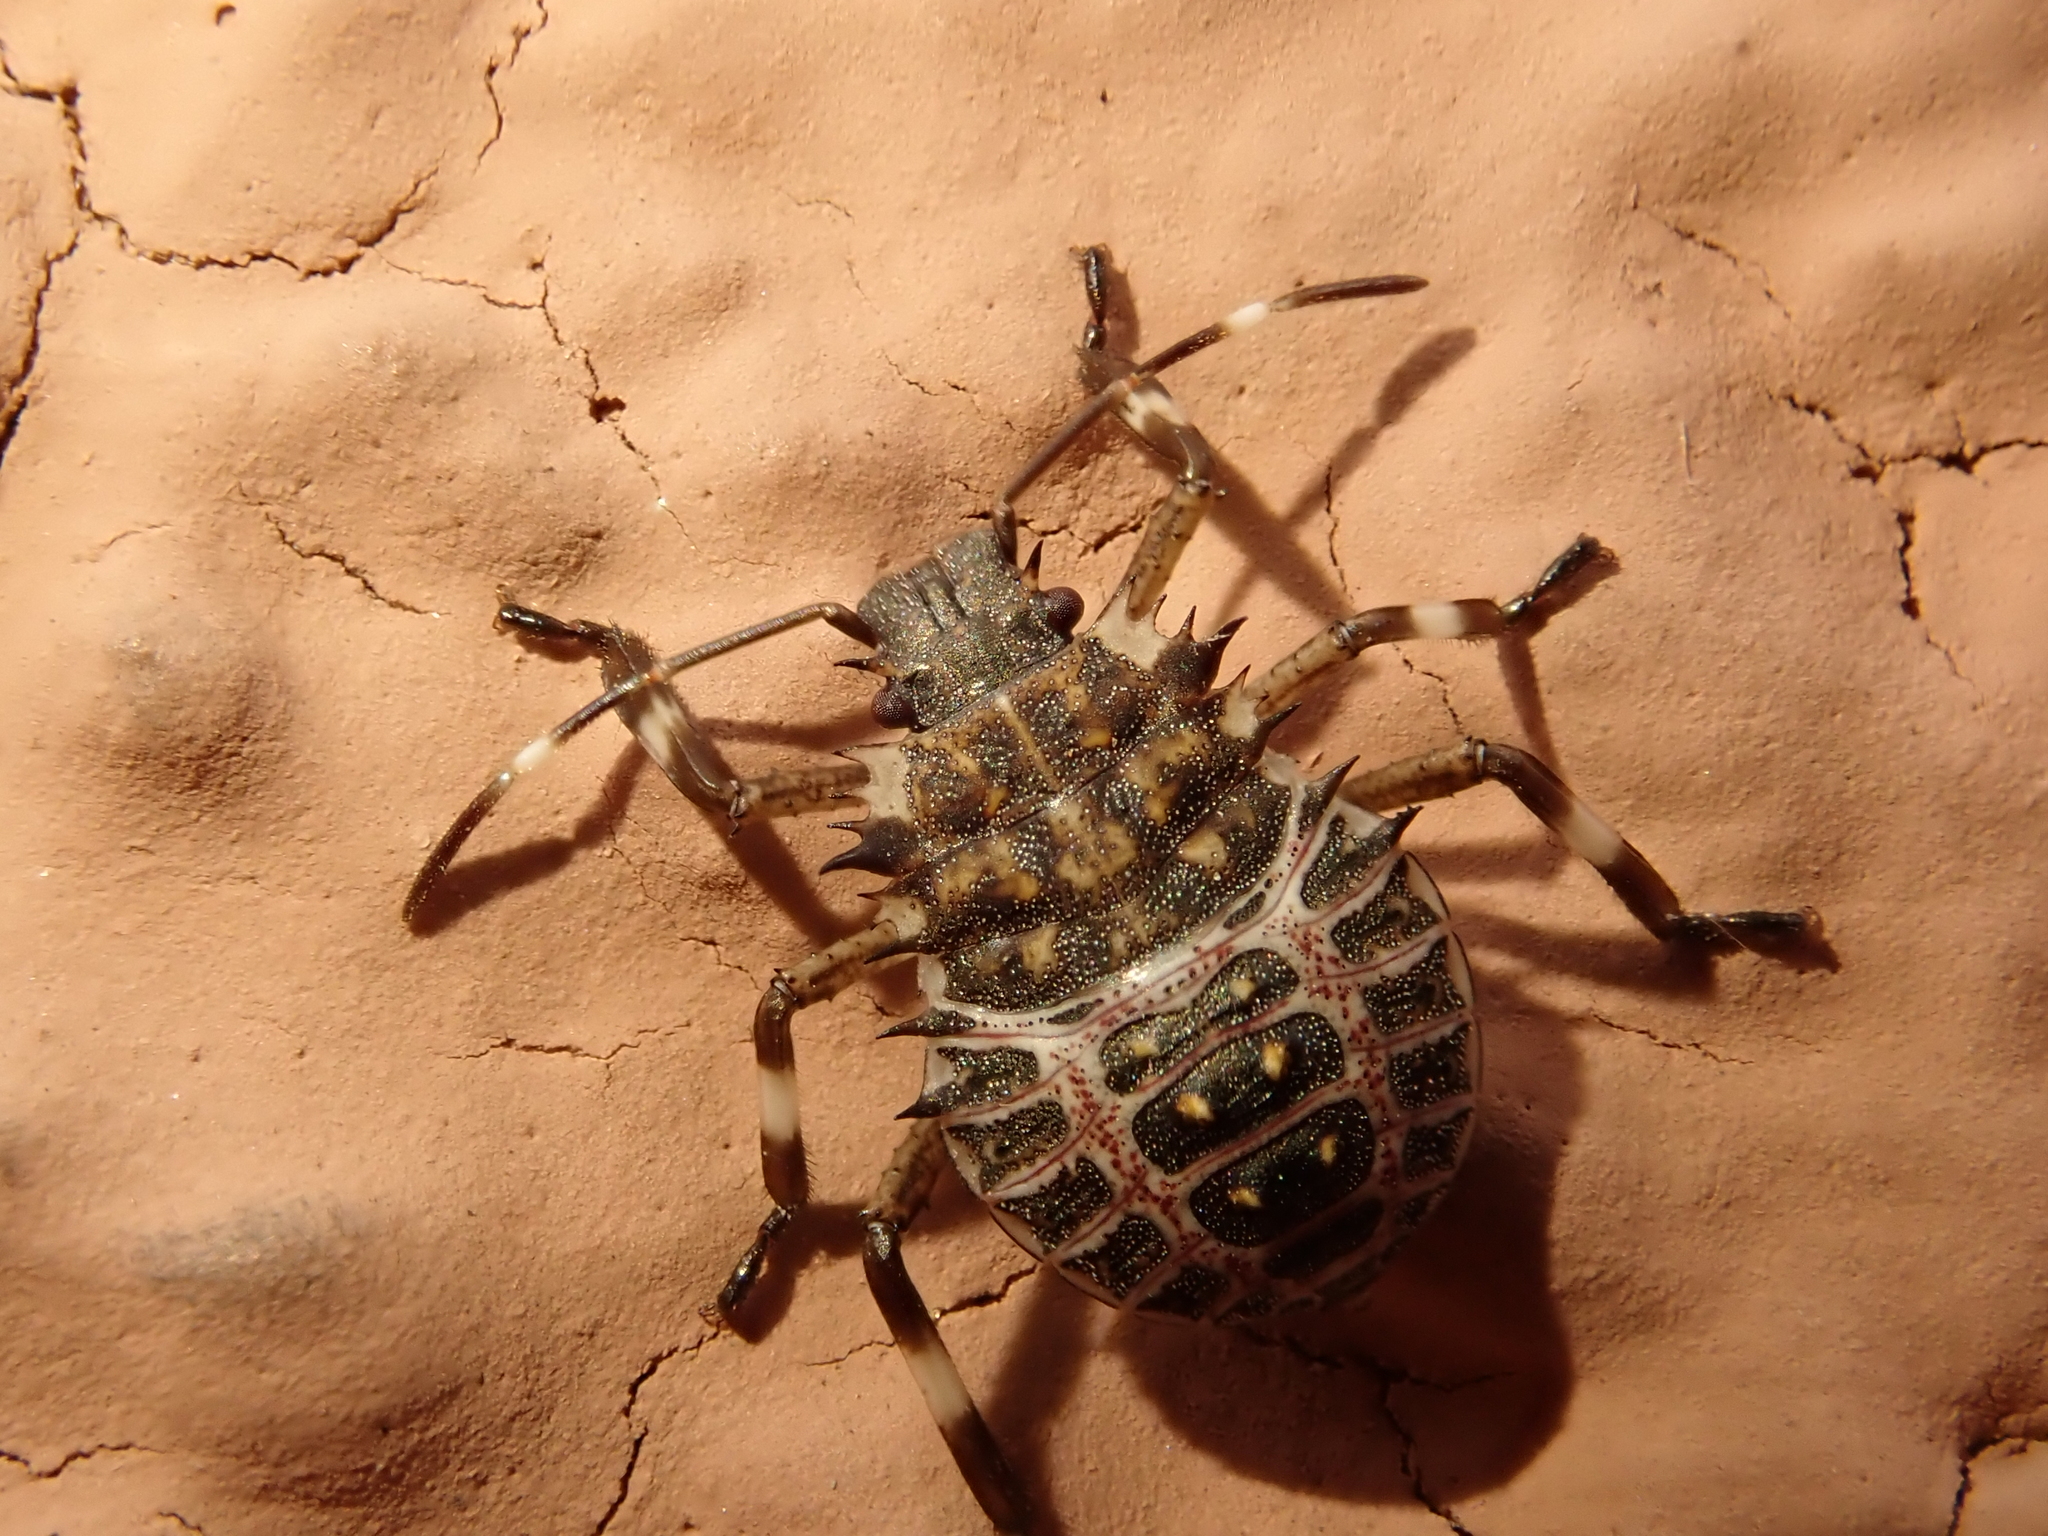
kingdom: Animalia
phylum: Arthropoda
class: Insecta
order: Hemiptera
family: Pentatomidae
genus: Halyomorpha
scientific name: Halyomorpha halys
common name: Brown marmorated stink bug
